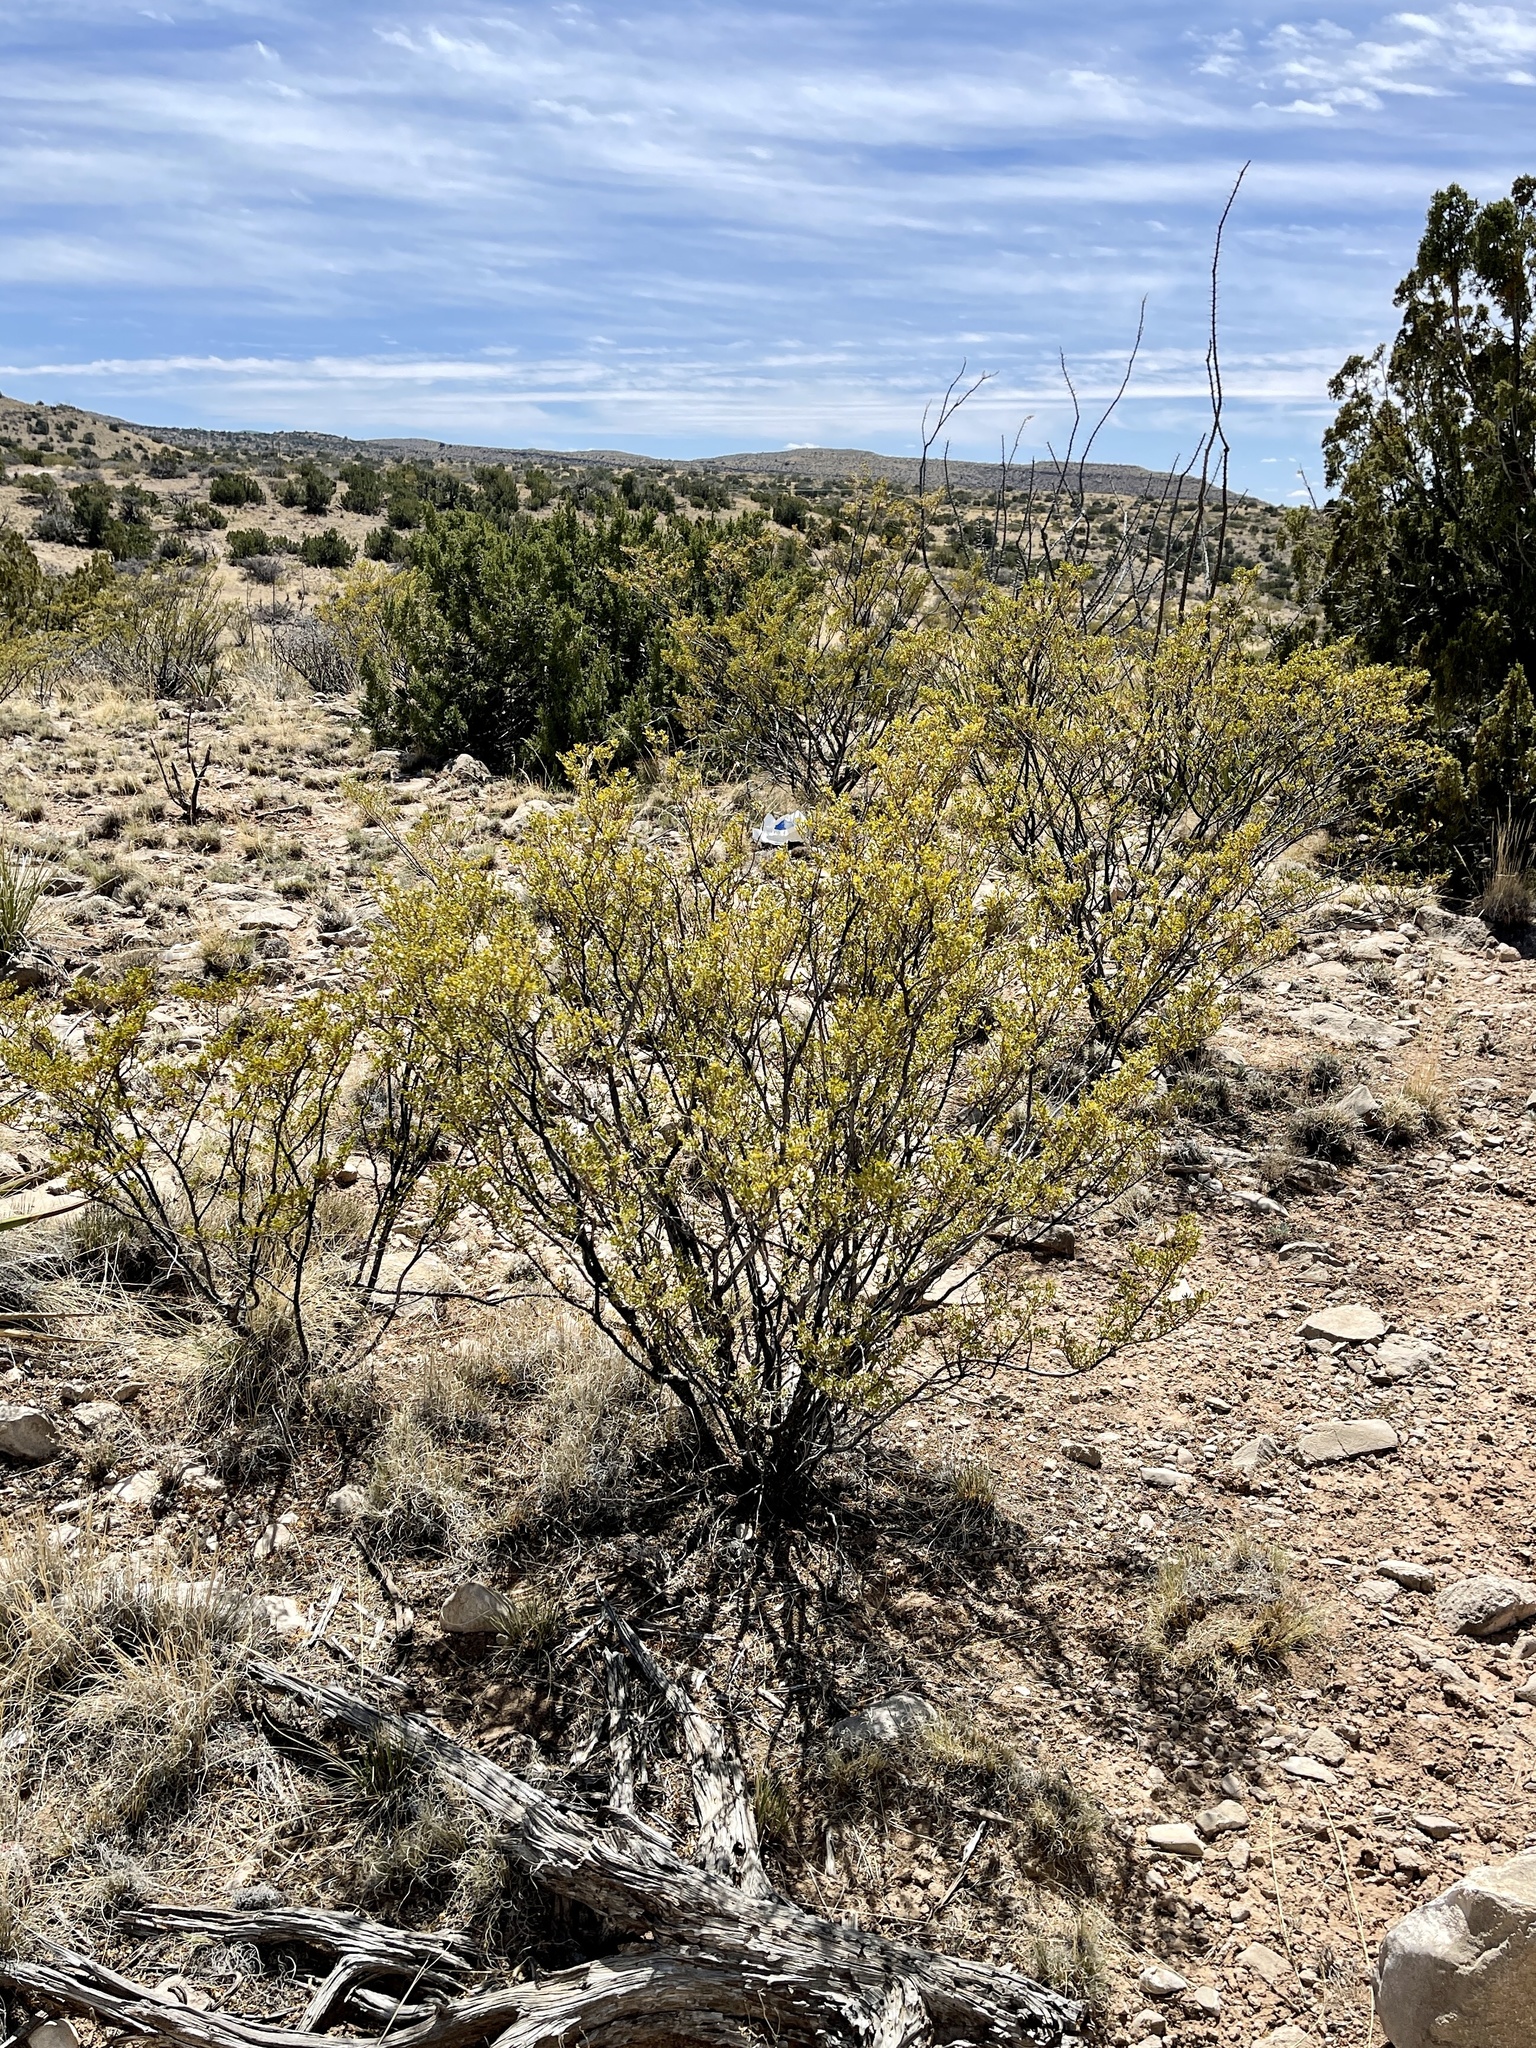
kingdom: Plantae
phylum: Tracheophyta
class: Magnoliopsida
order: Zygophyllales
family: Zygophyllaceae
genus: Larrea
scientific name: Larrea tridentata
